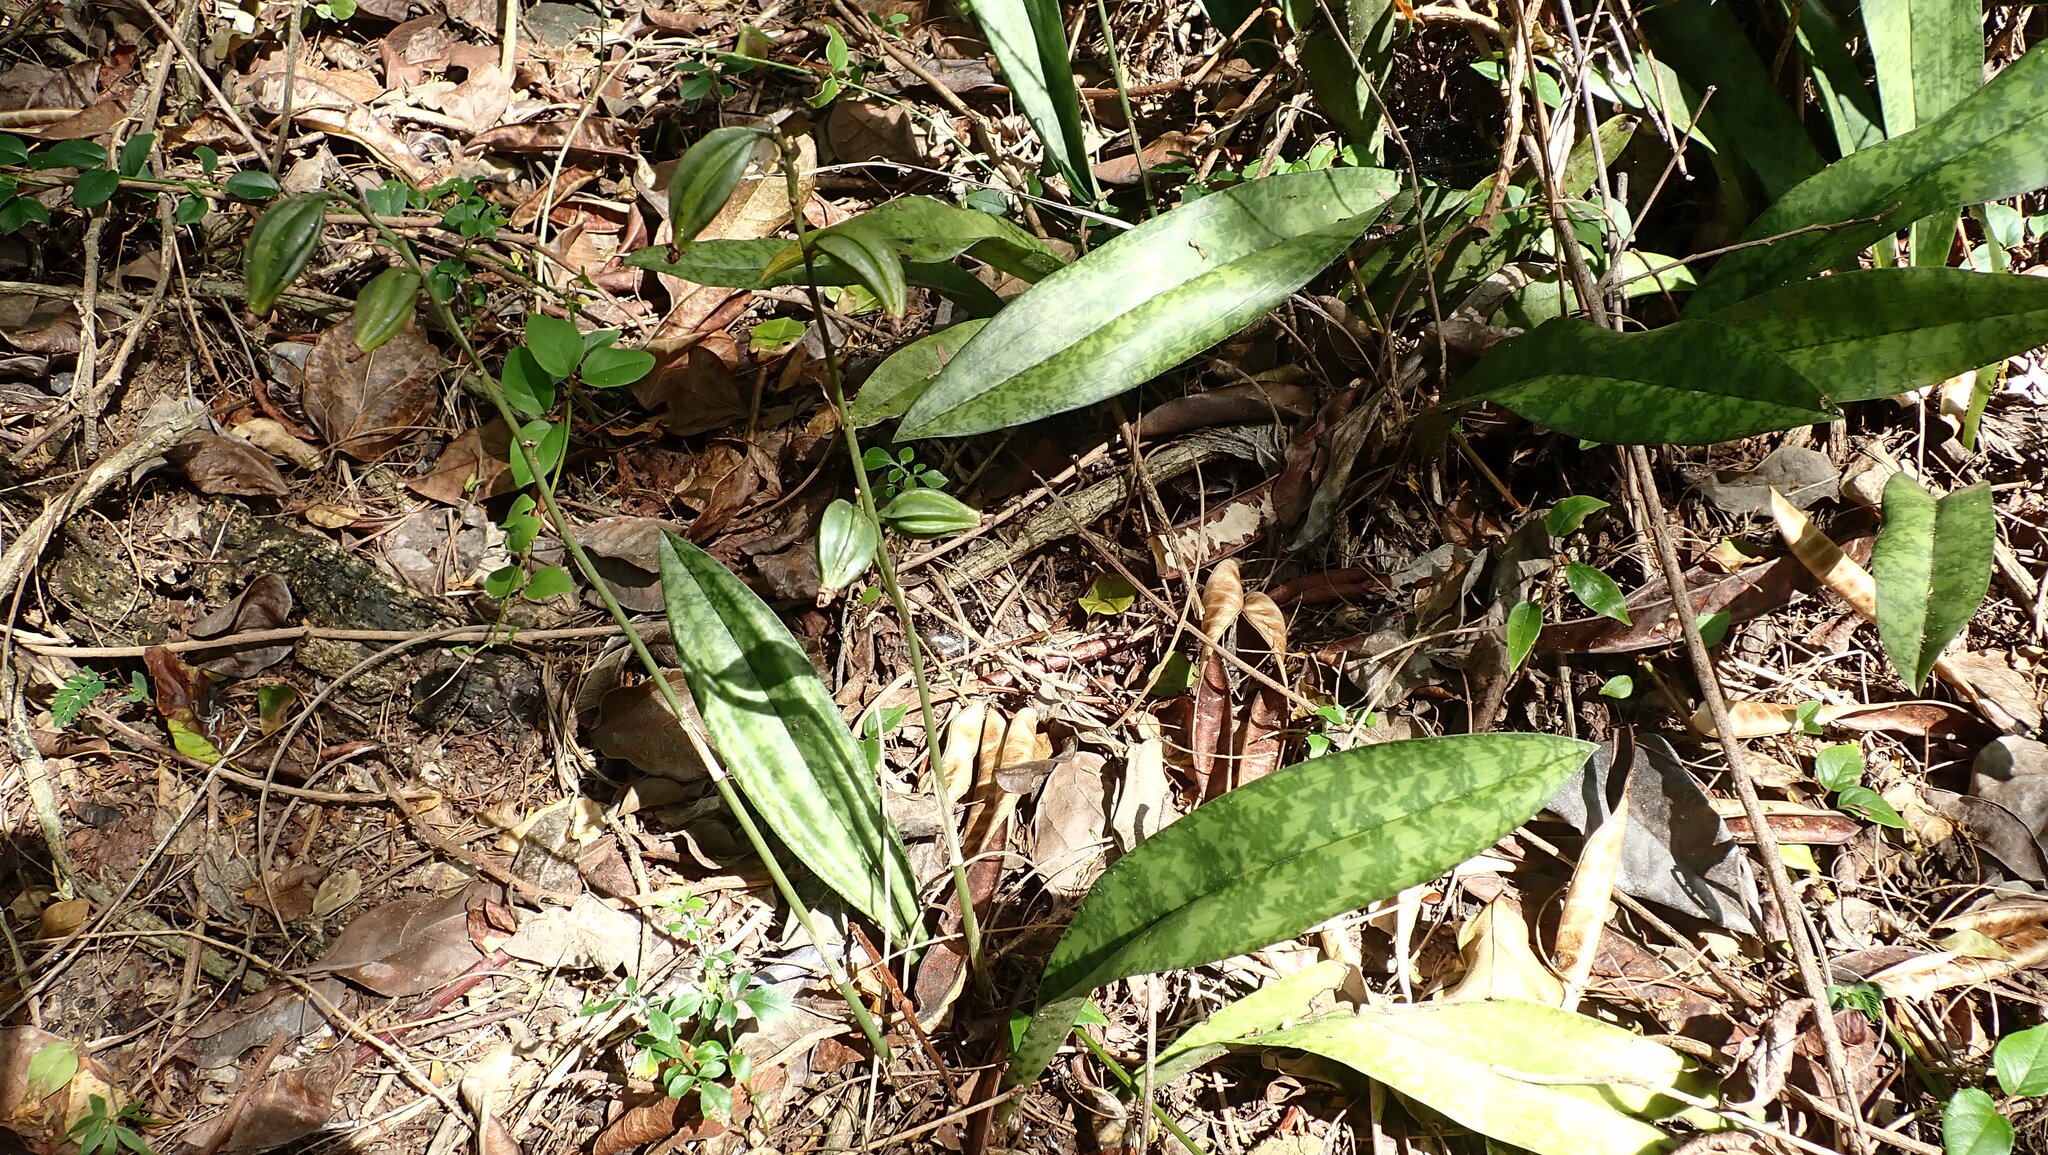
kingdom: Plantae
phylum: Tracheophyta
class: Liliopsida
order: Asparagales
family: Orchidaceae
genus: Eulophia
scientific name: Eulophia maculata
